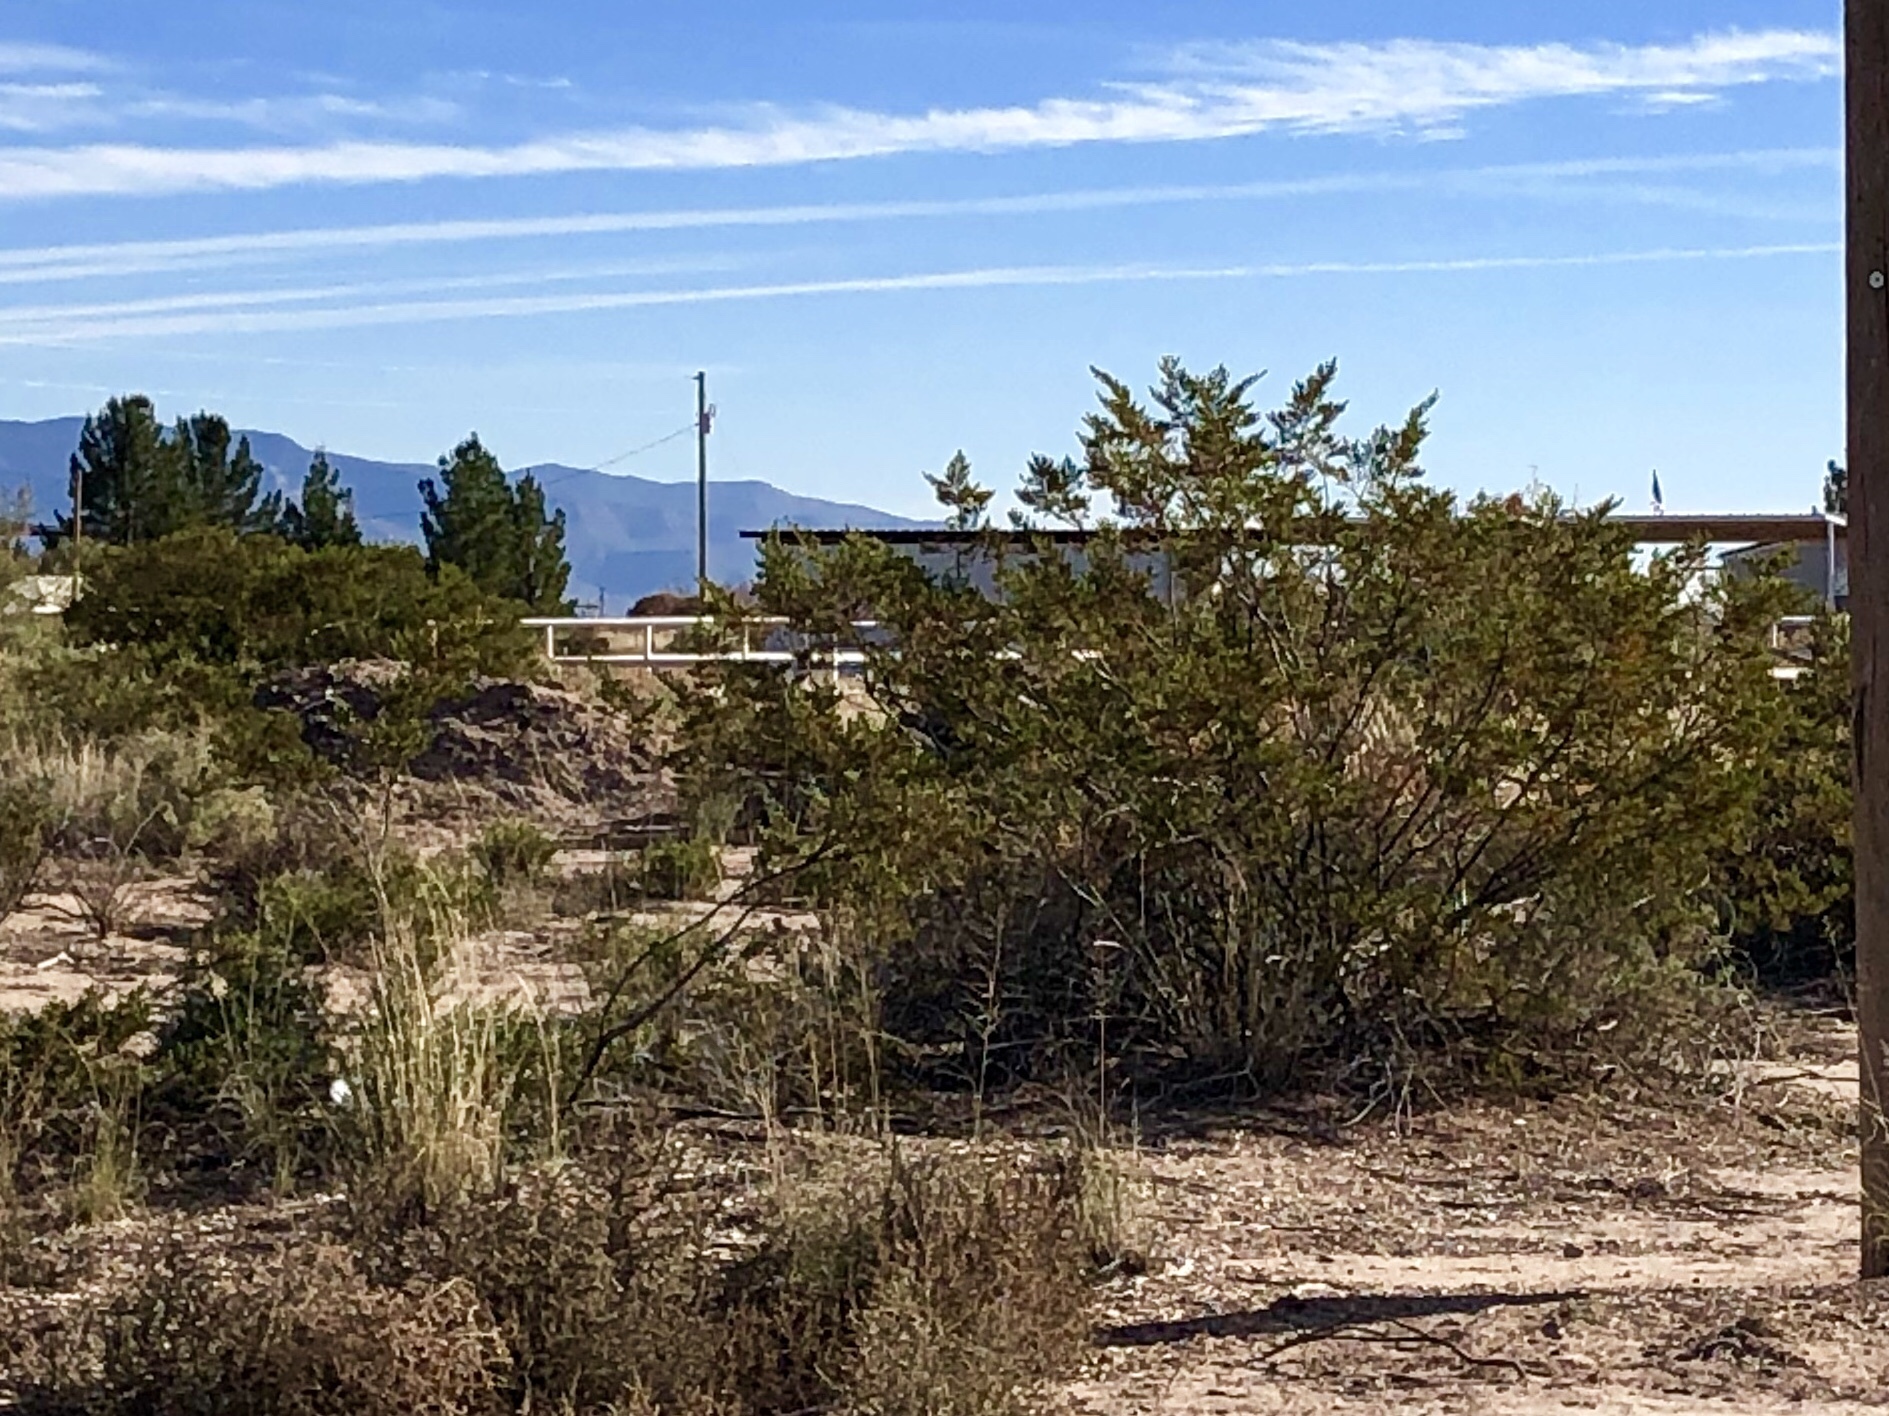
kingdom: Plantae
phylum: Tracheophyta
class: Magnoliopsida
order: Zygophyllales
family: Zygophyllaceae
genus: Larrea
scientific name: Larrea tridentata
